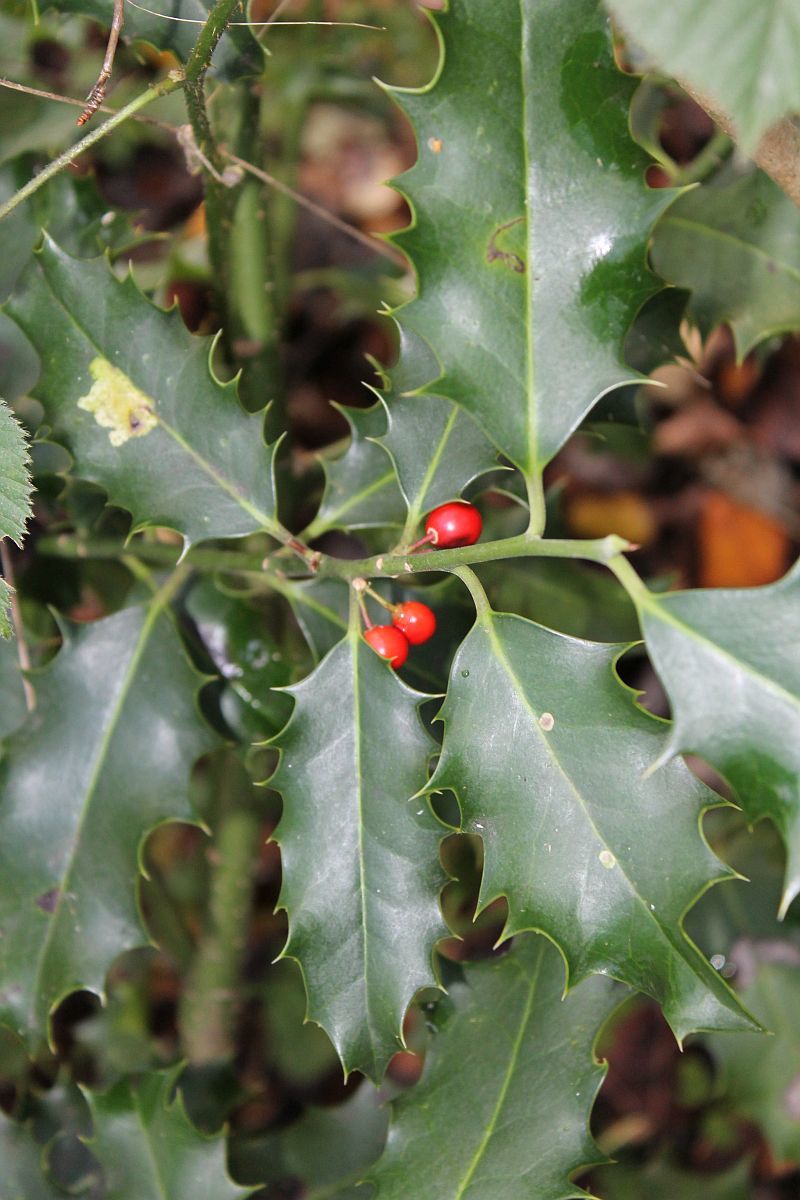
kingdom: Plantae
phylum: Tracheophyta
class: Magnoliopsida
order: Aquifoliales
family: Aquifoliaceae
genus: Ilex
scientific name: Ilex aquifolium
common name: English holly
